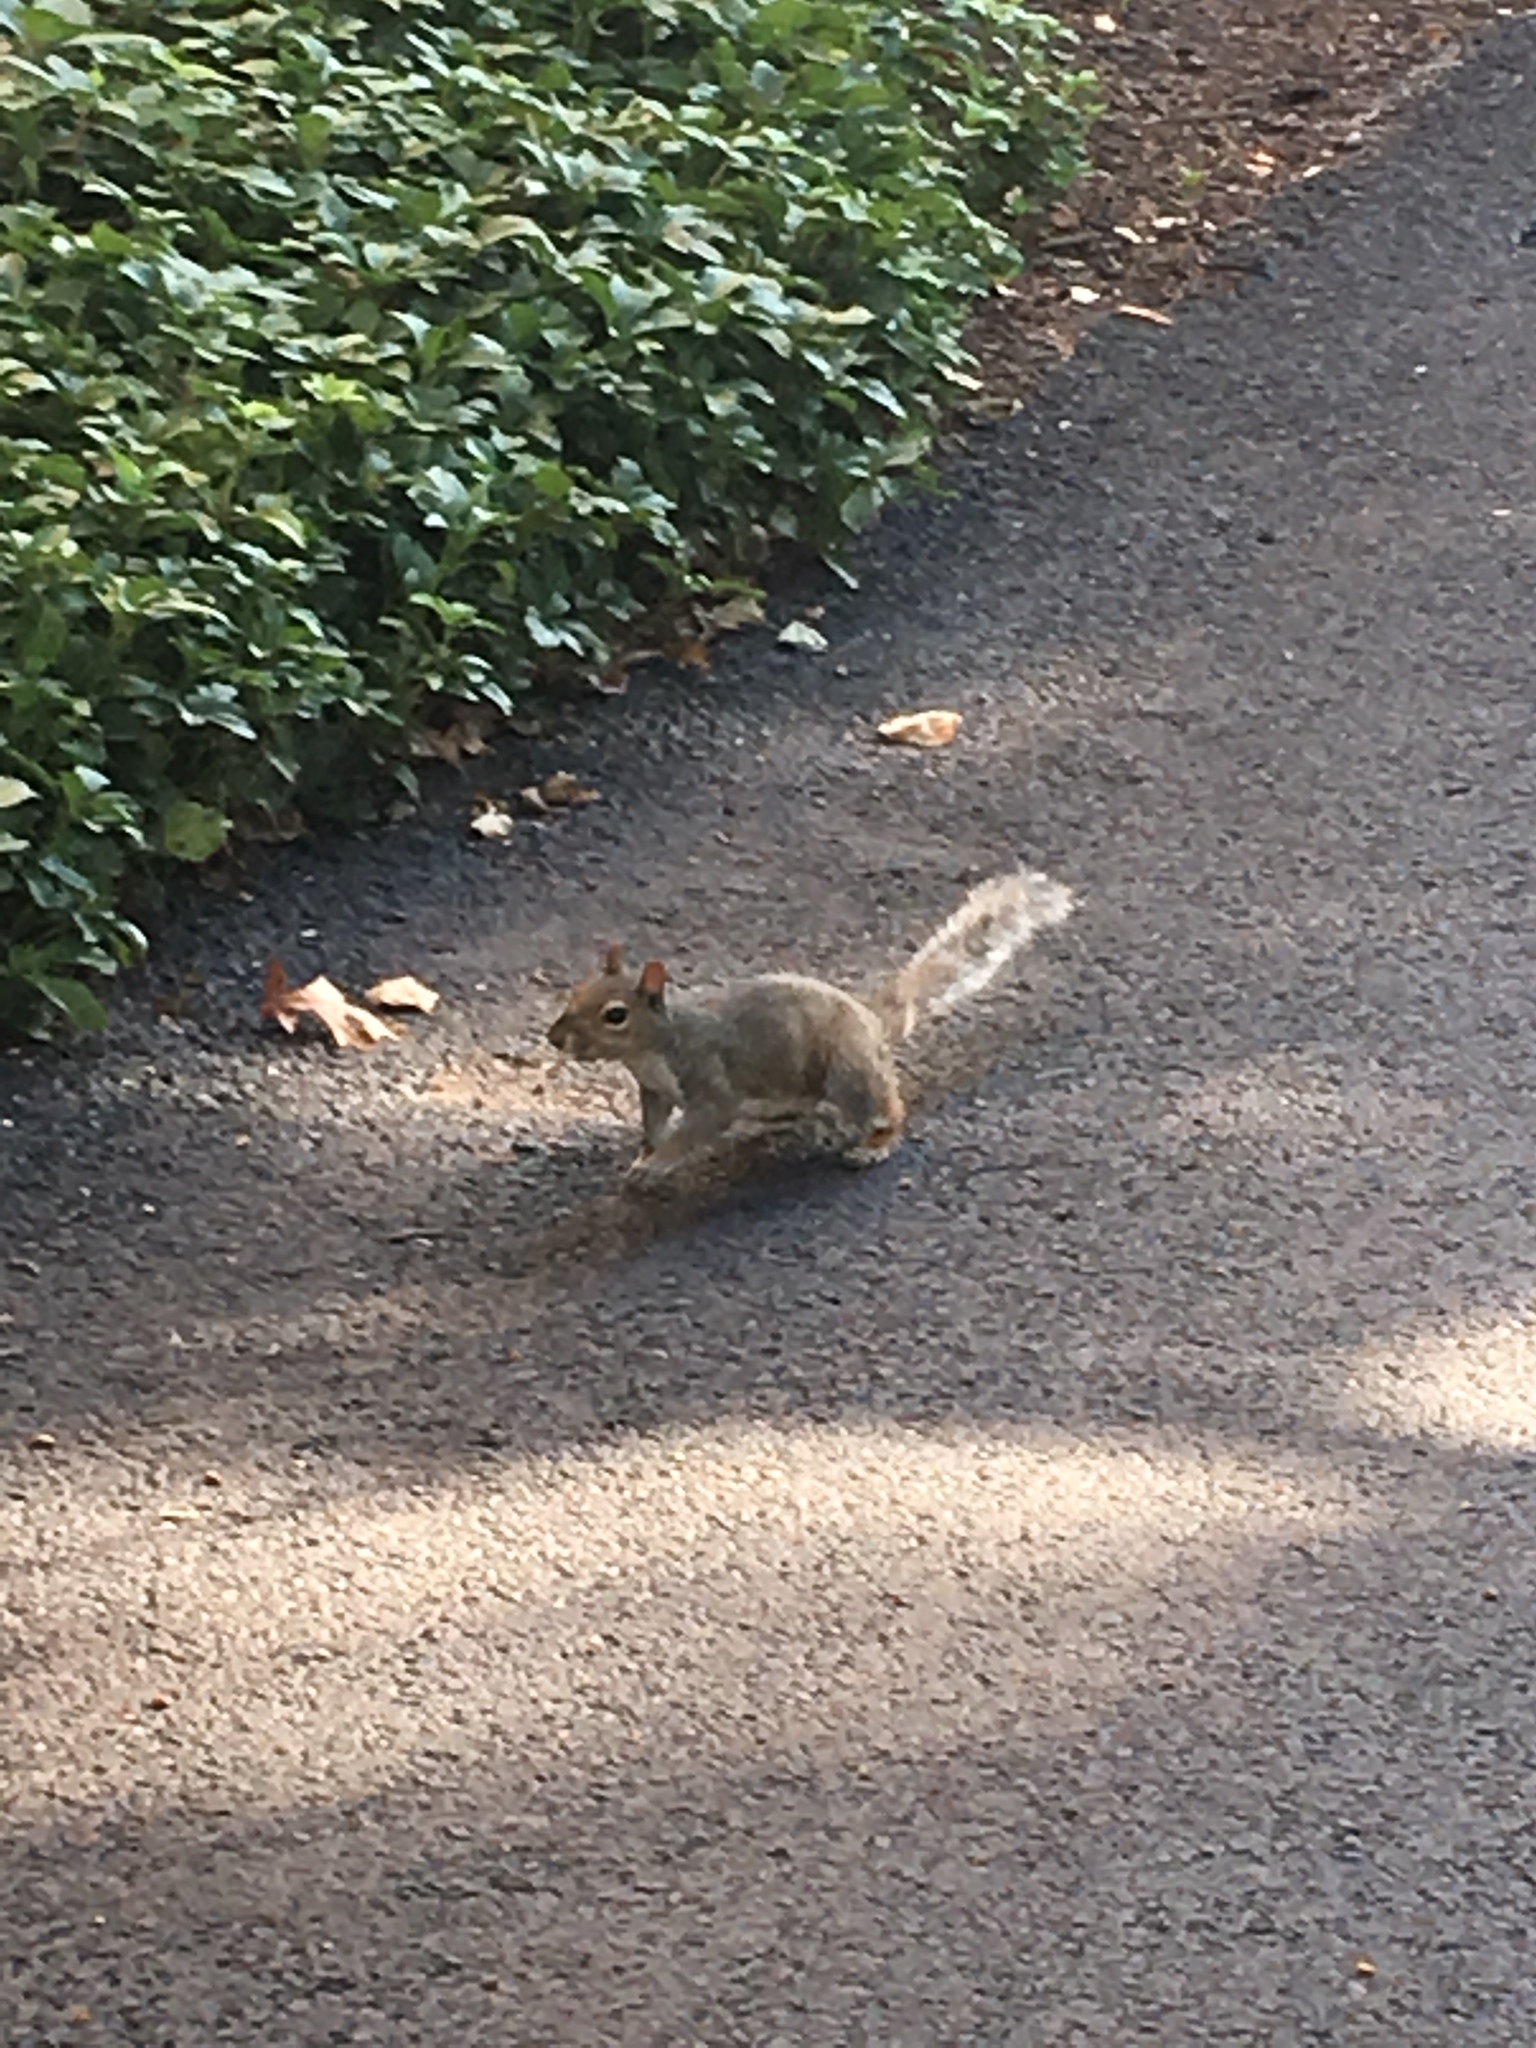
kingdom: Animalia
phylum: Chordata
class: Mammalia
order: Rodentia
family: Sciuridae
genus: Sciurus
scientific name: Sciurus carolinensis
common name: Eastern gray squirrel
